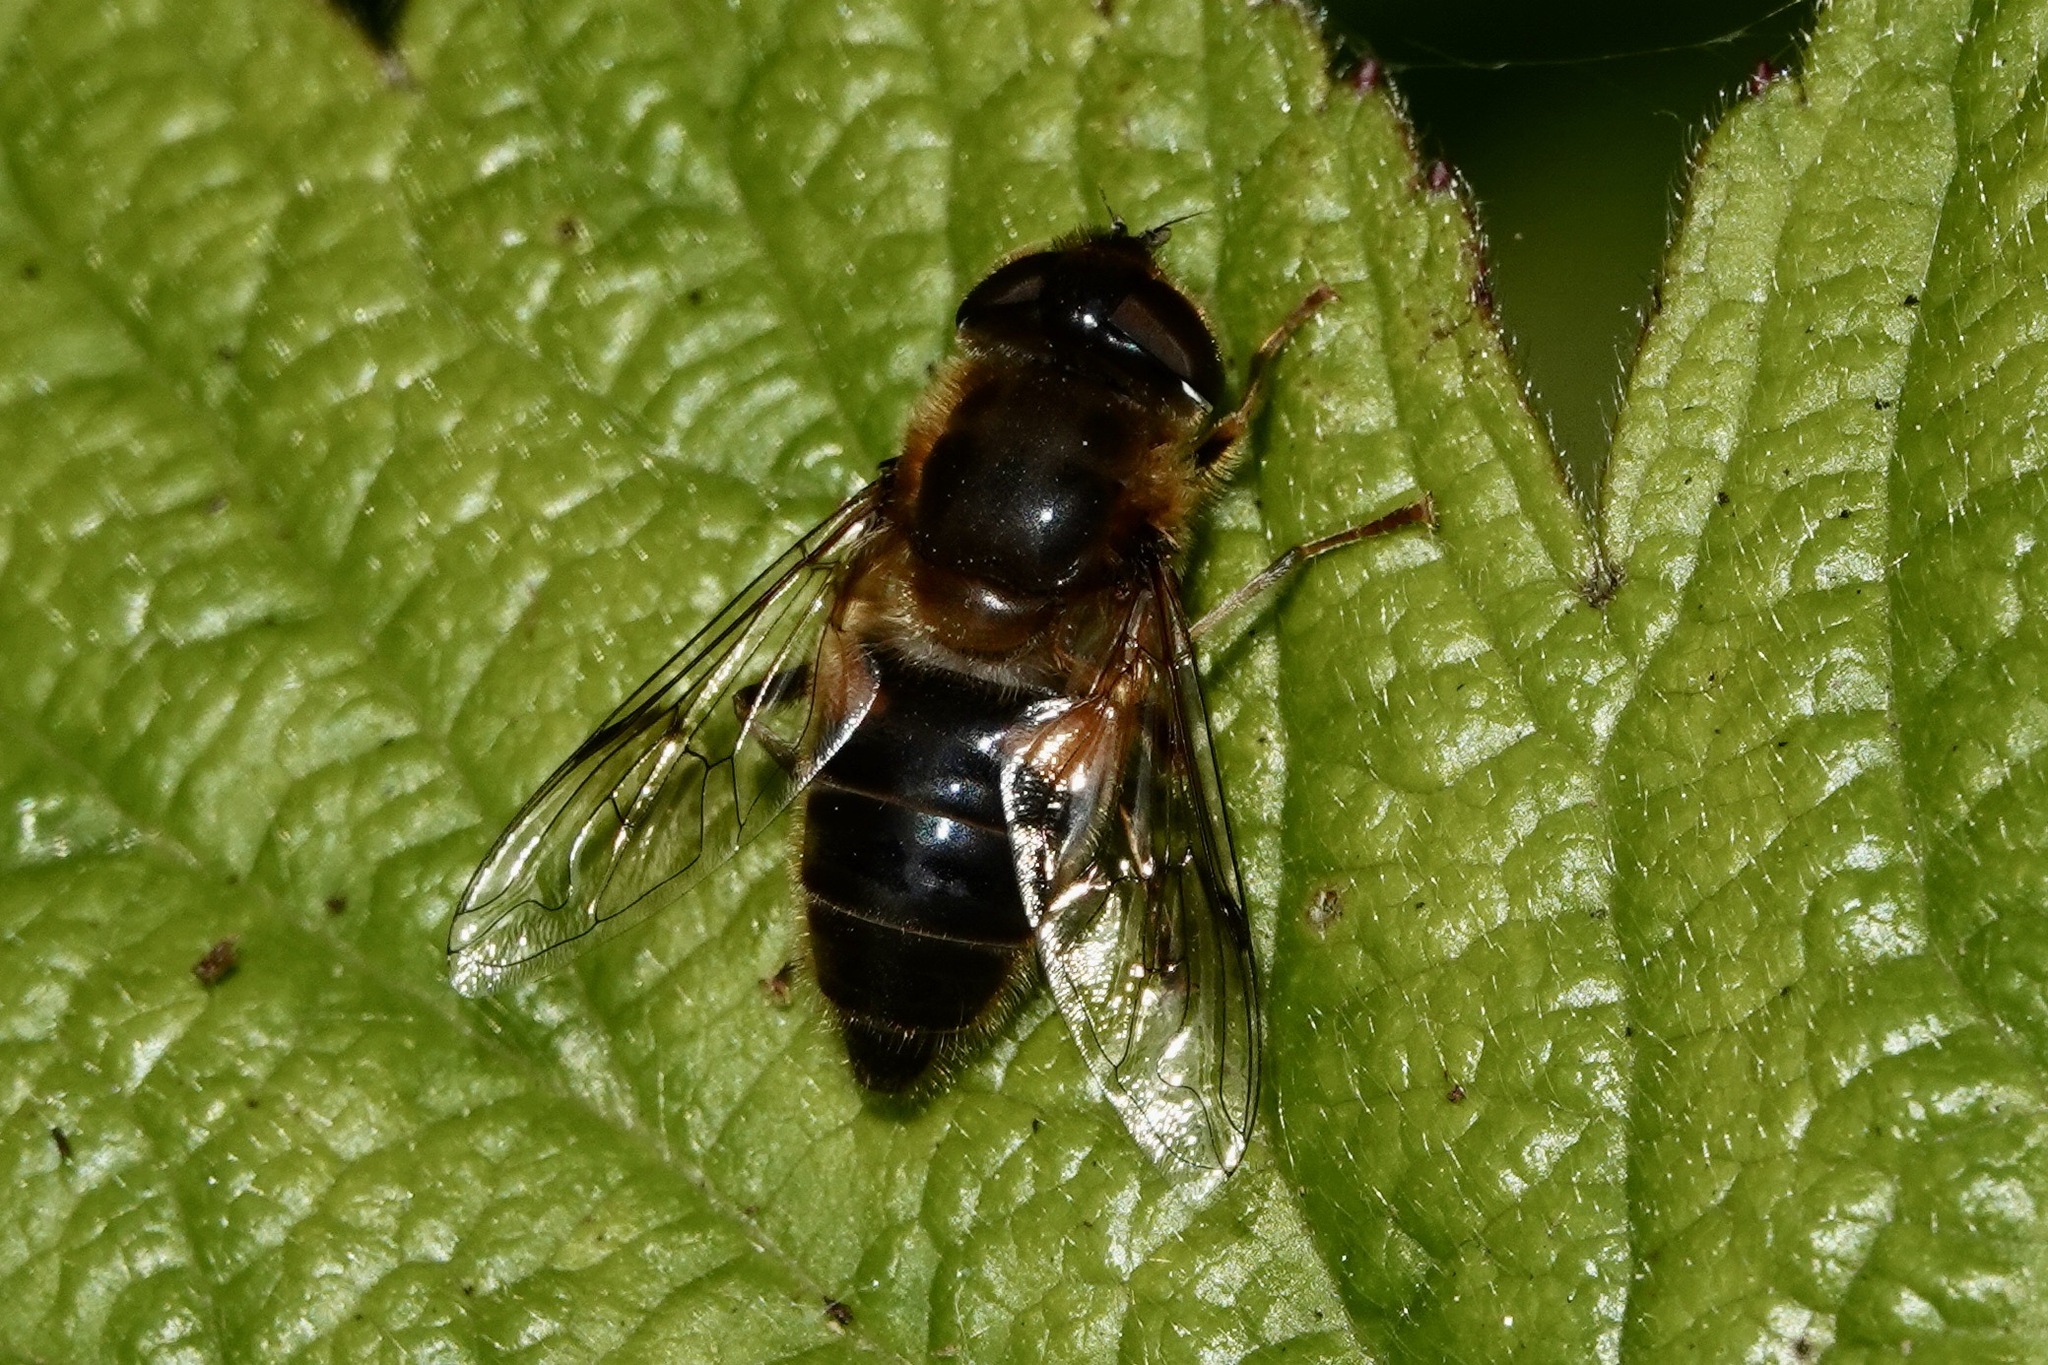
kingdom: Animalia
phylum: Arthropoda
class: Insecta
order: Diptera
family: Syrphidae
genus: Eristalis
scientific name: Eristalis pertinax
